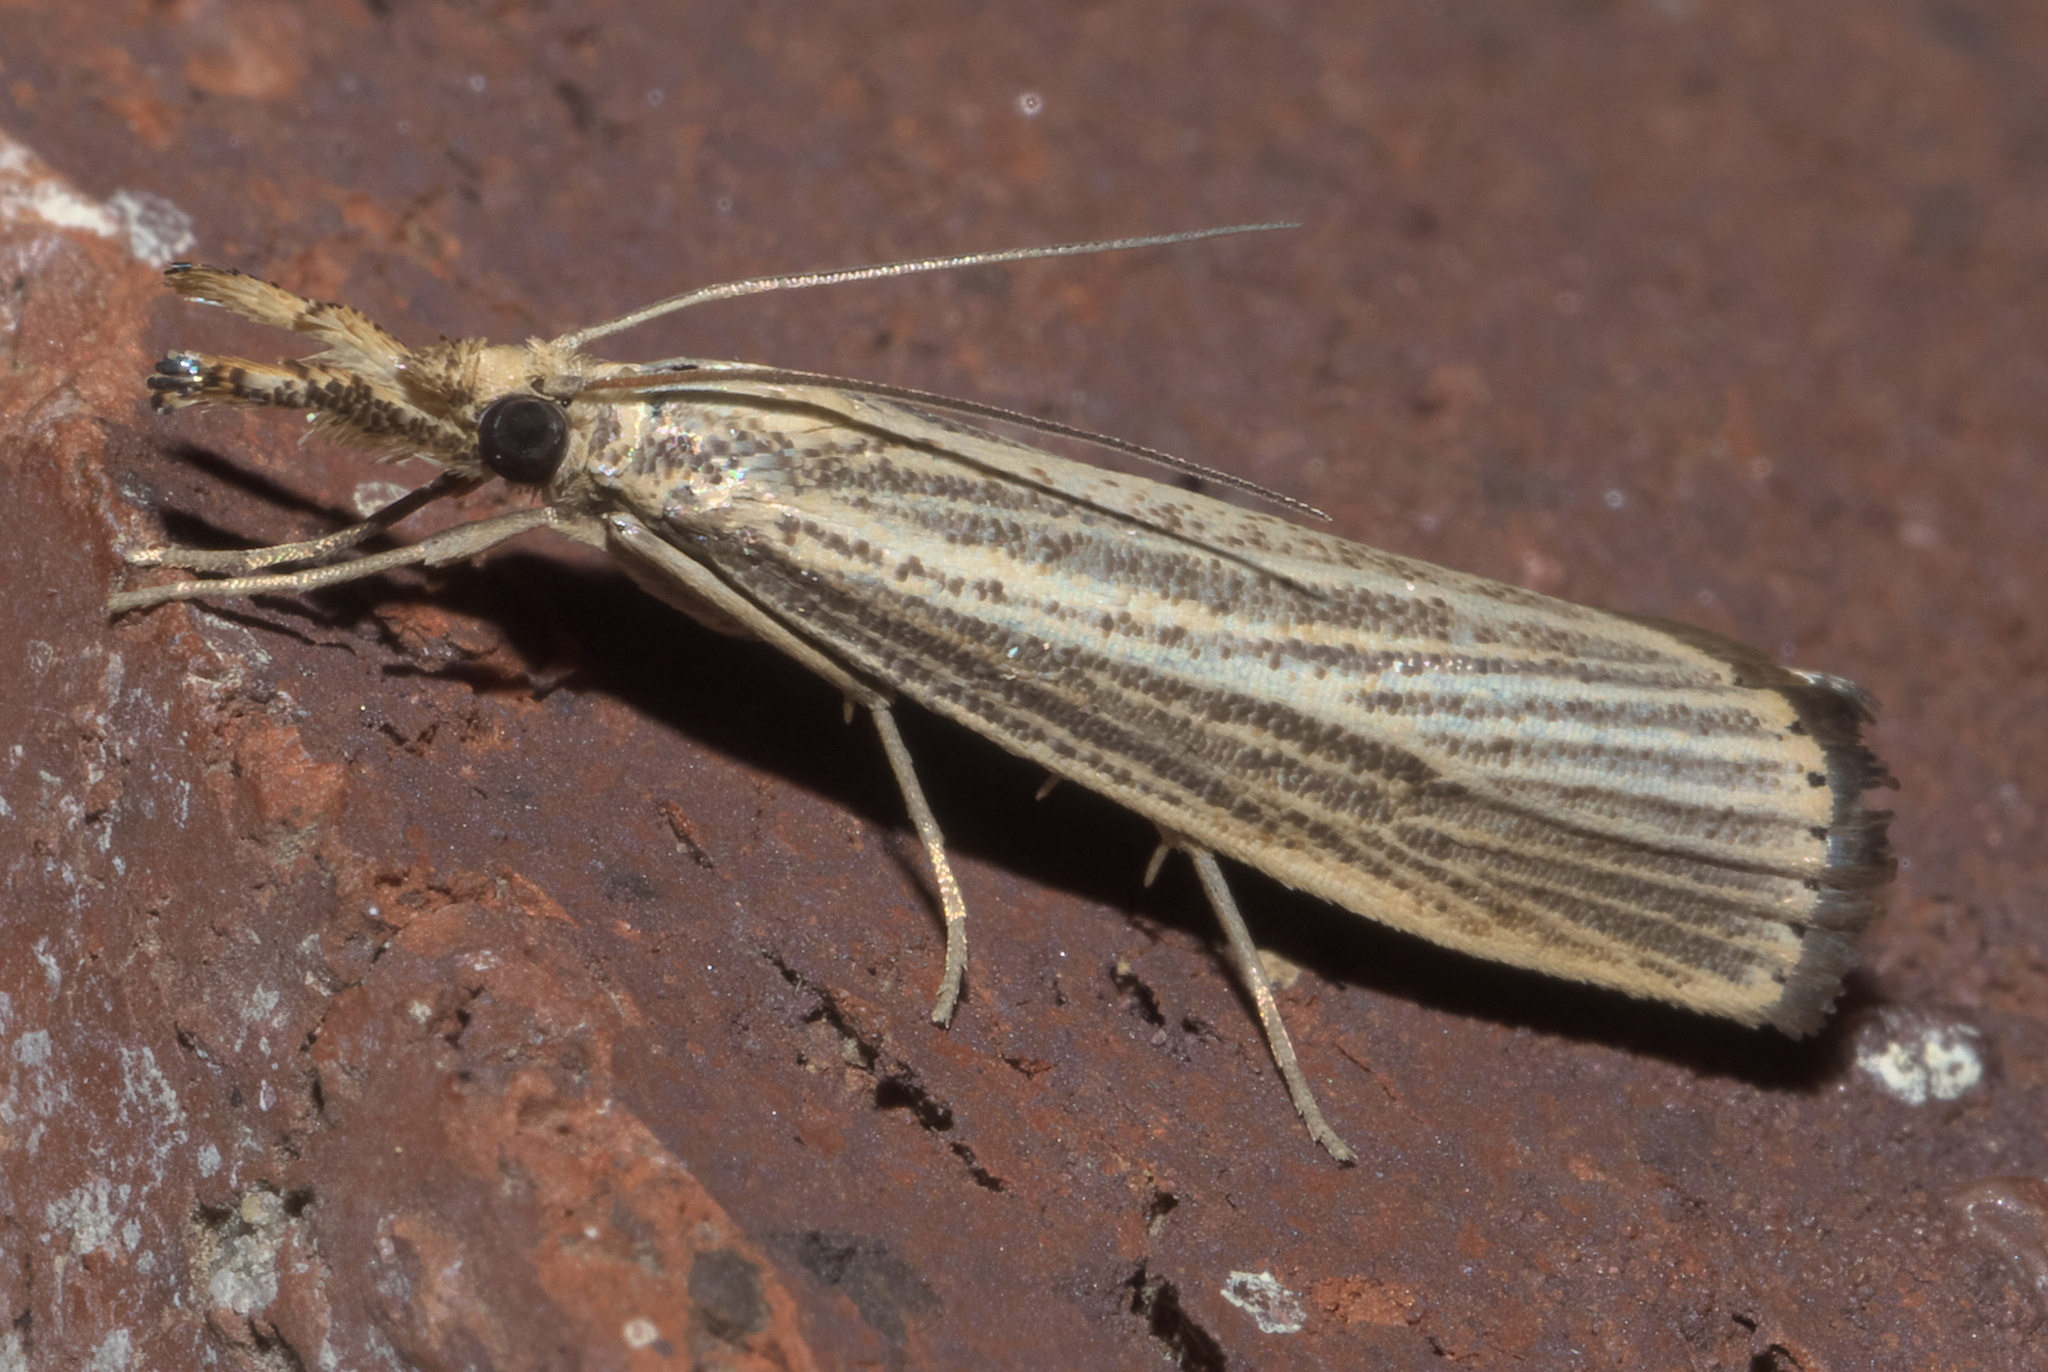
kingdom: Animalia
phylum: Arthropoda
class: Insecta
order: Lepidoptera
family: Crambidae
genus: Agriphila
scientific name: Agriphila vulgivagellus
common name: Vagabond crambus moth
